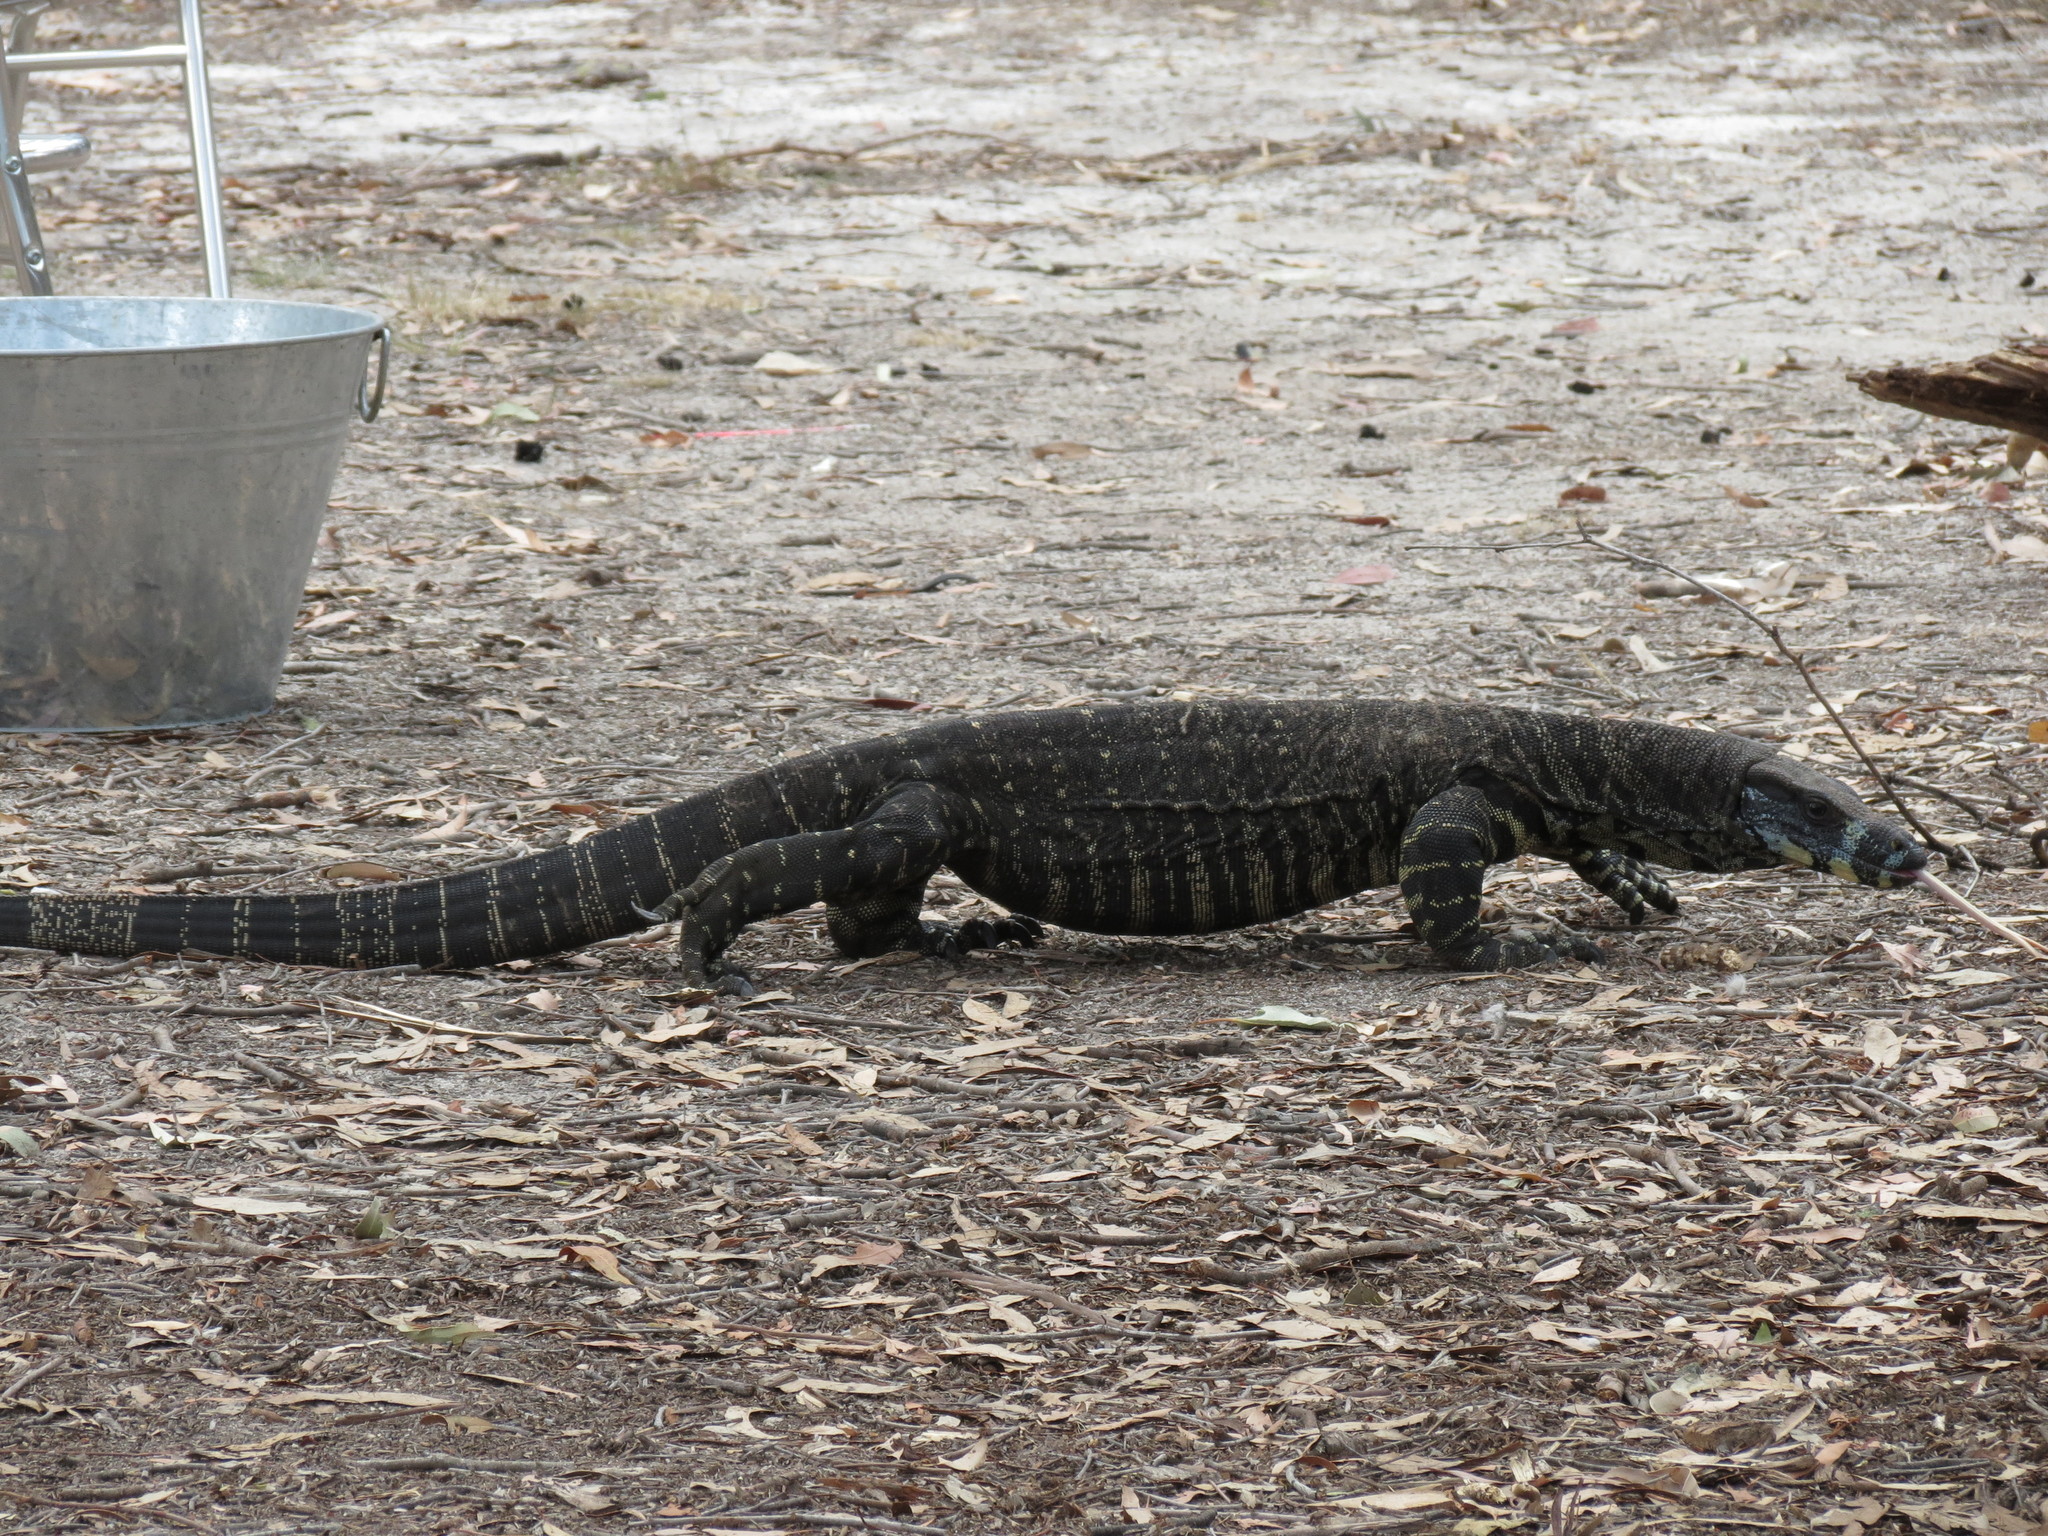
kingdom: Animalia
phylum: Chordata
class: Squamata
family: Varanidae
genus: Varanus
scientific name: Varanus varius
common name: Lace monitor
